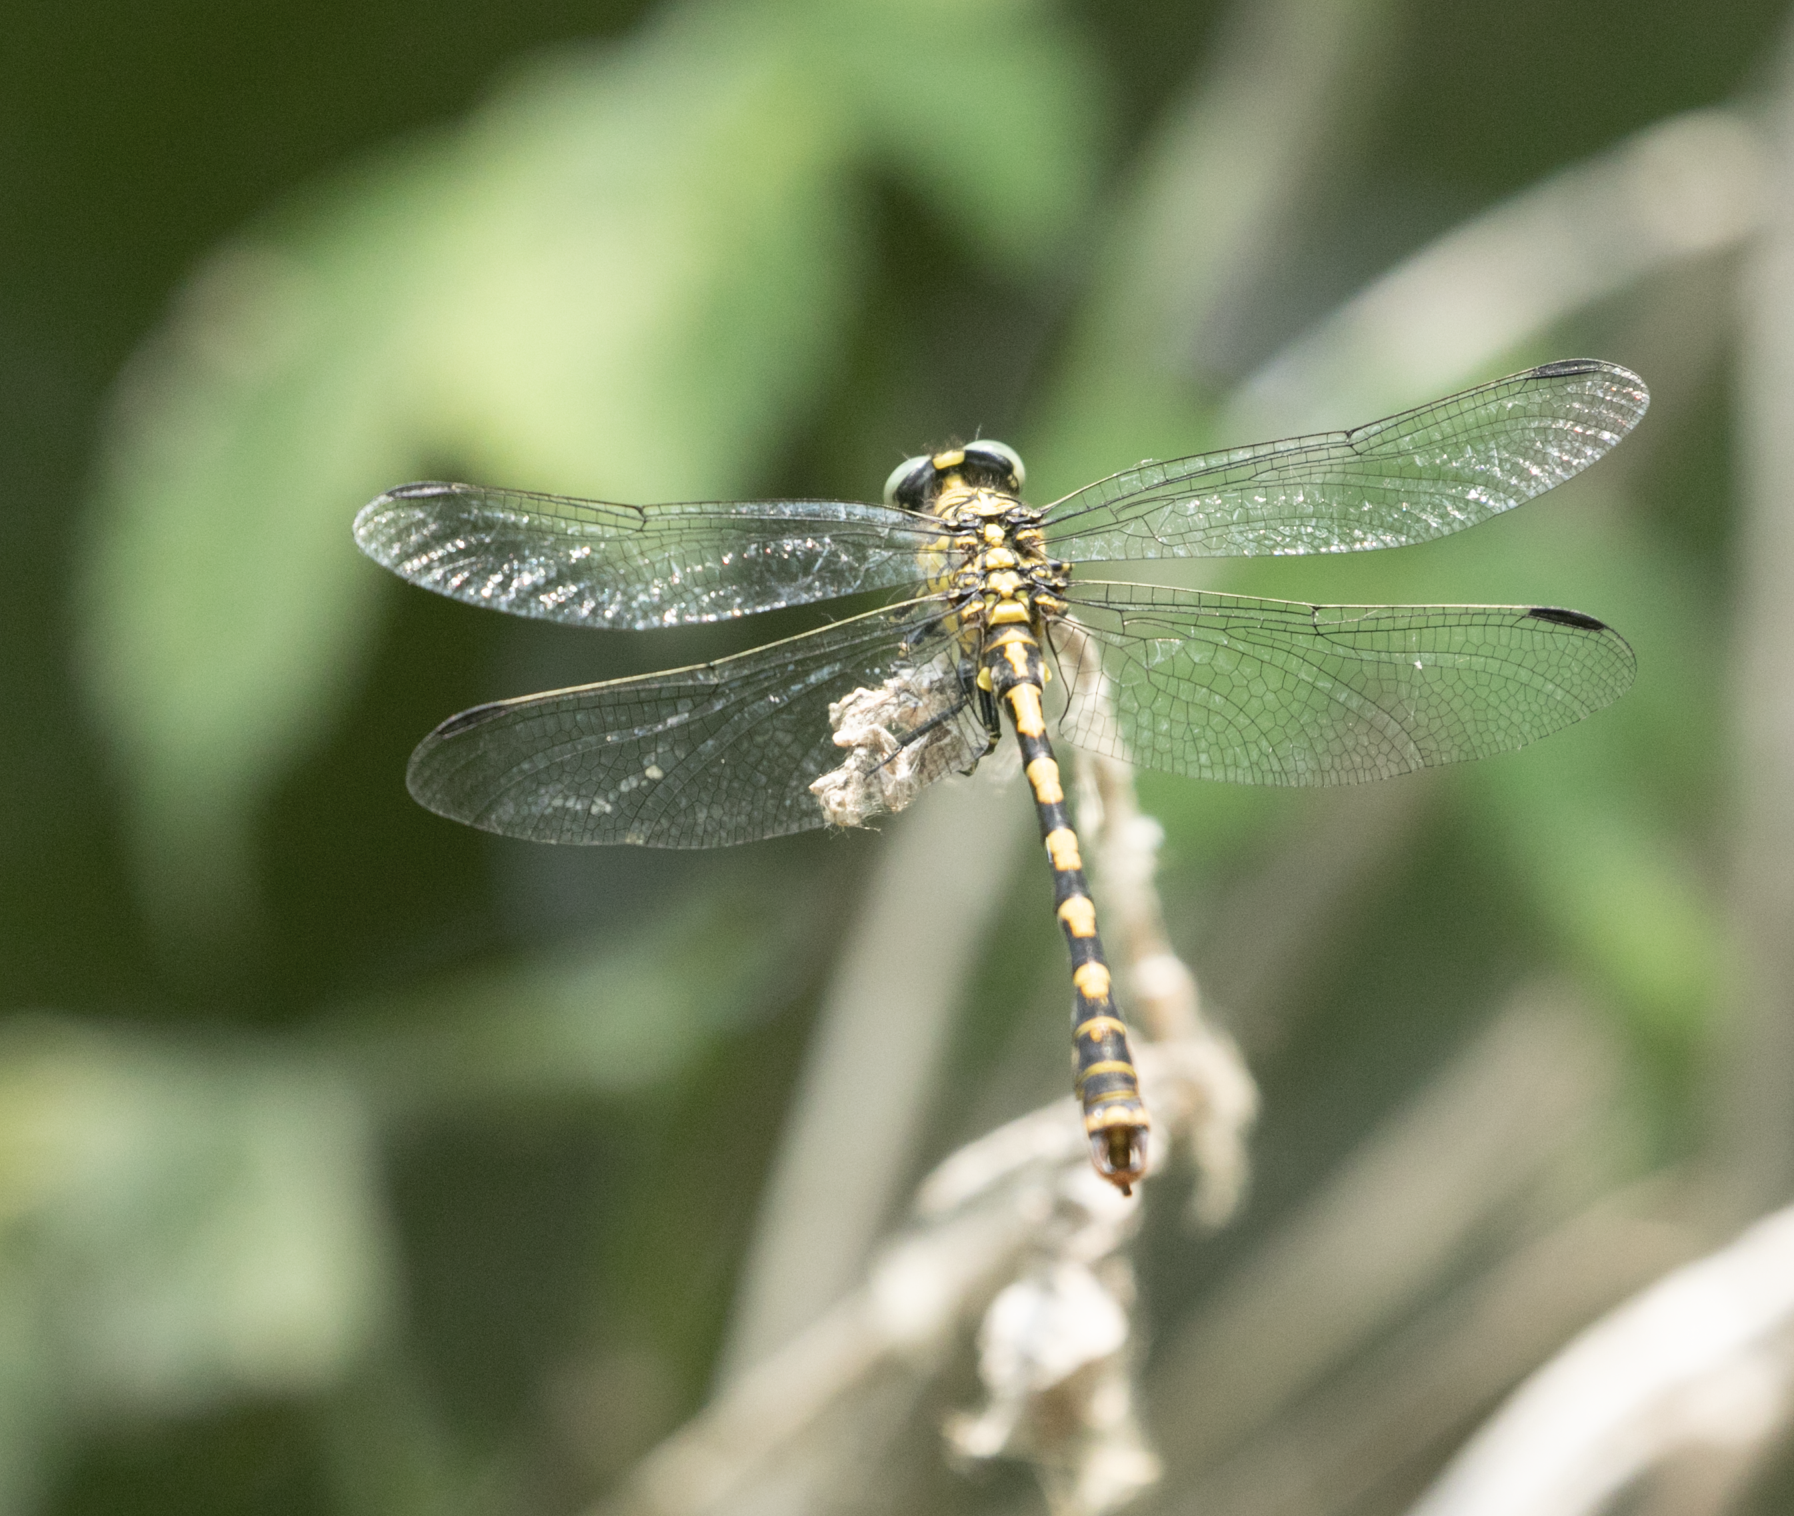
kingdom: Animalia
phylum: Arthropoda
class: Insecta
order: Odonata
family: Gomphidae
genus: Onychogomphus
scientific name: Onychogomphus forcipatus
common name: Small pincertail
